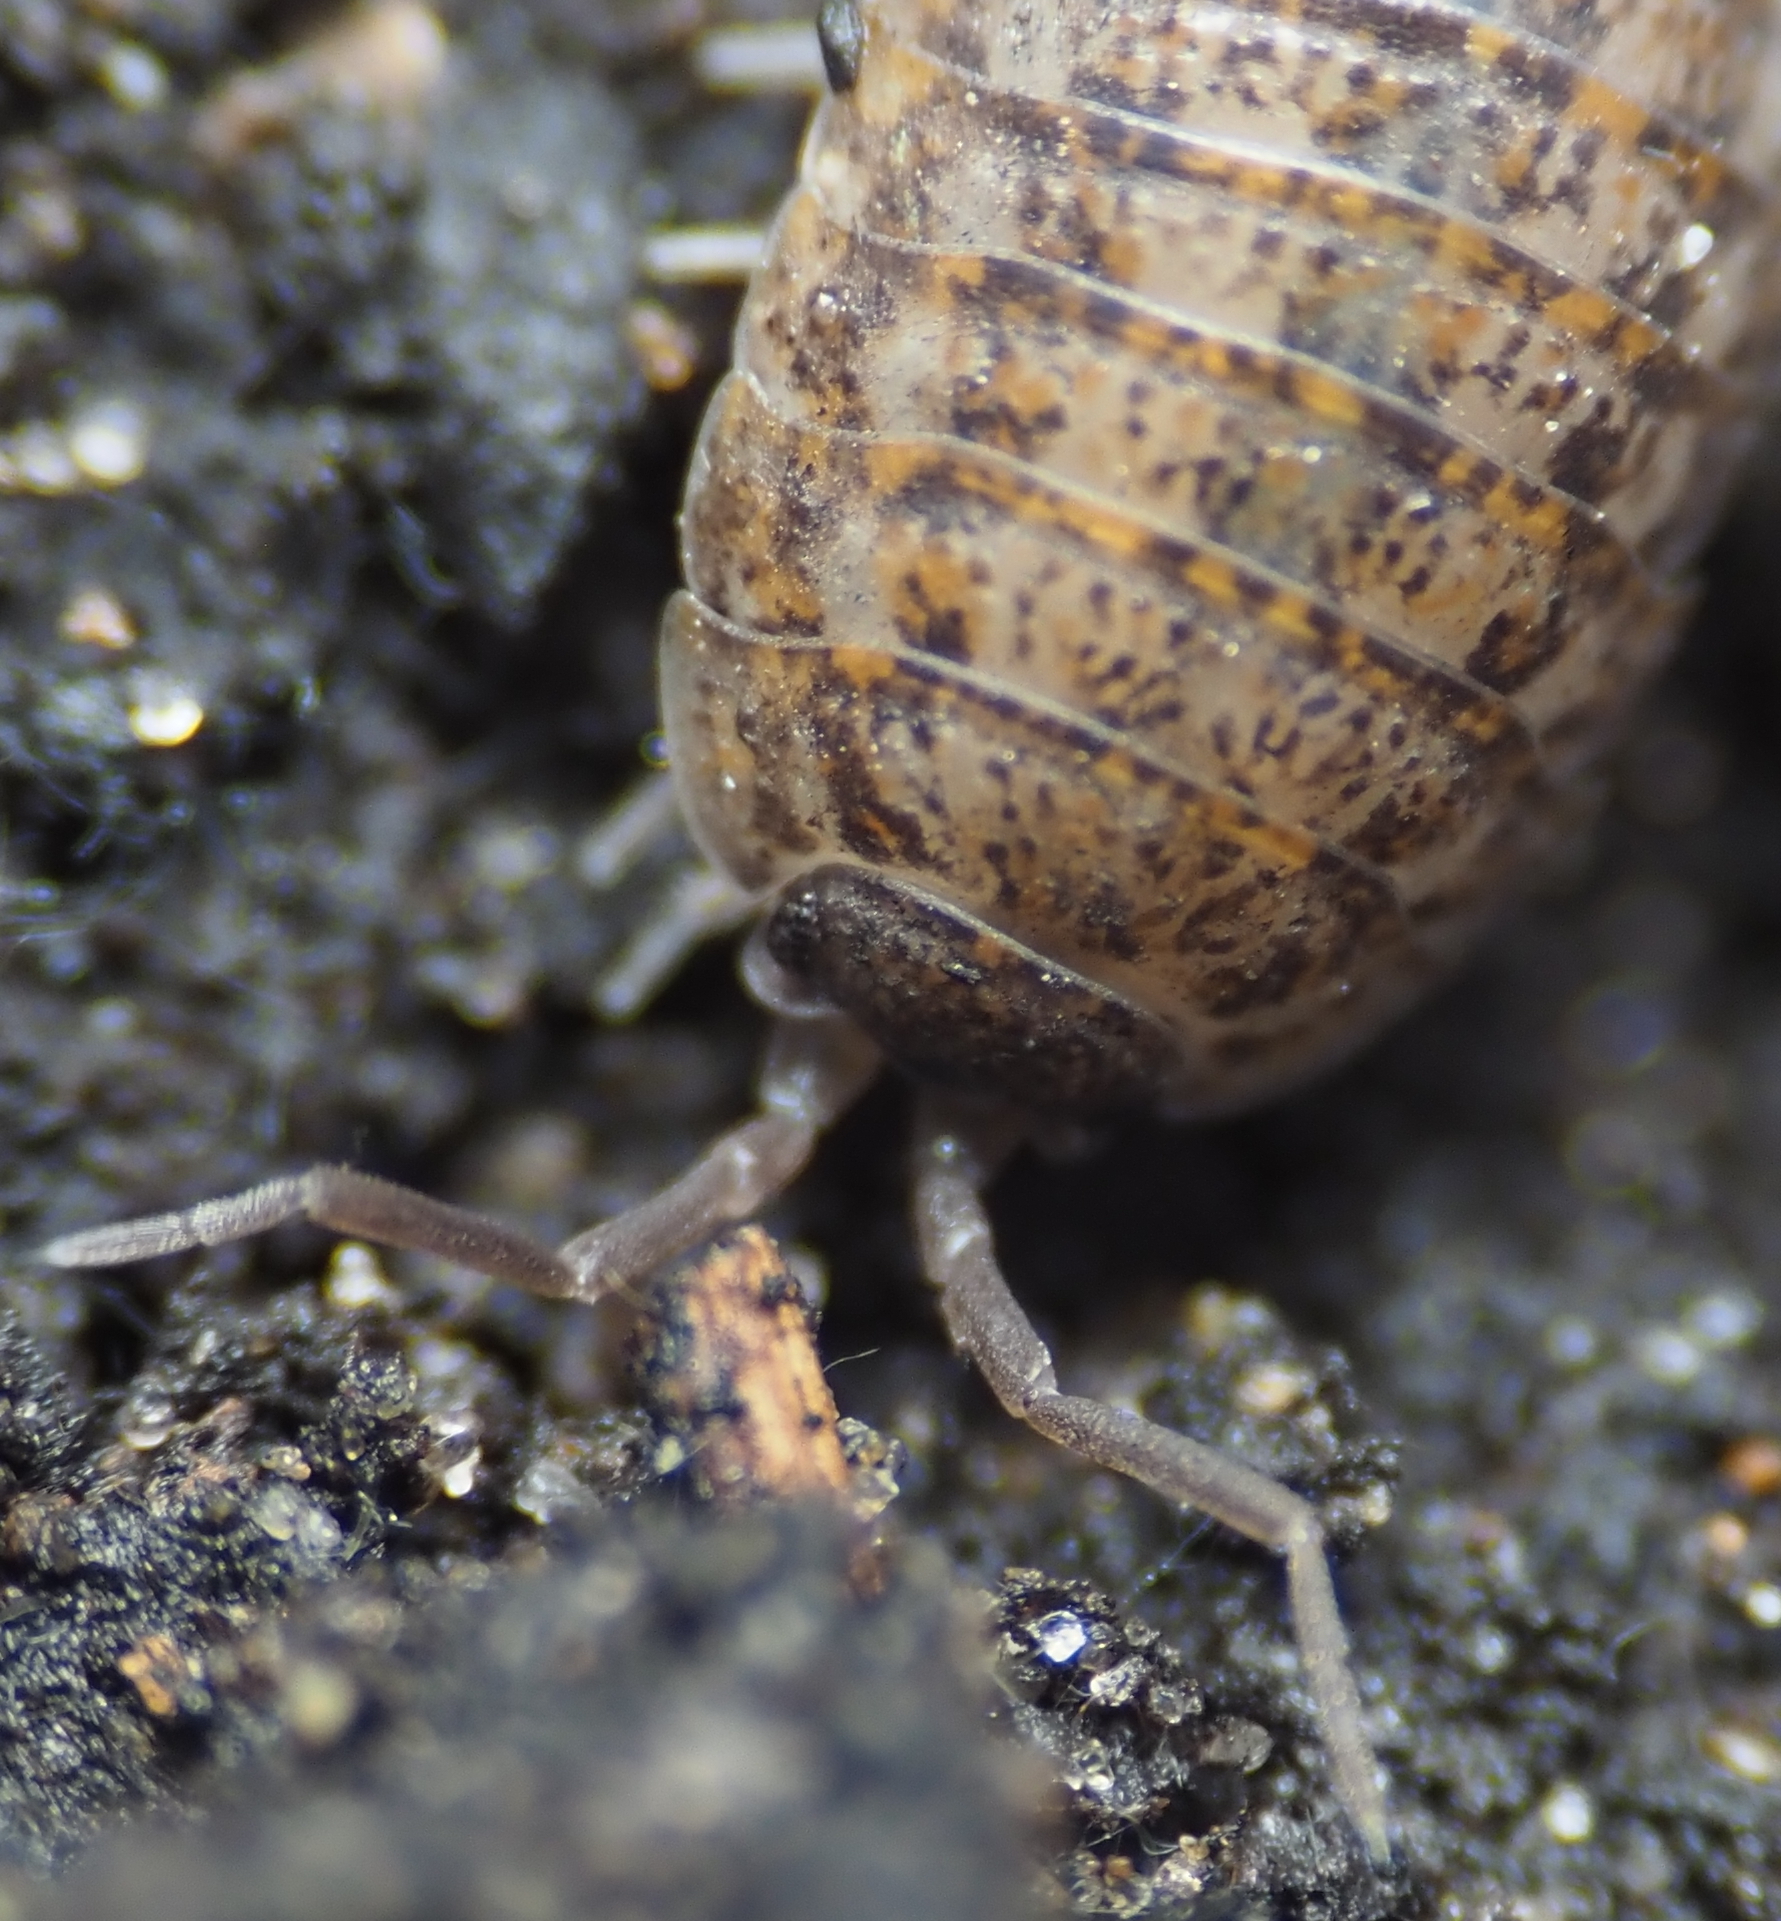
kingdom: Animalia
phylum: Arthropoda
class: Malacostraca
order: Isopoda
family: Trachelipodidae
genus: Trachelipus
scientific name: Trachelipus rathkii
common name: Isopod
